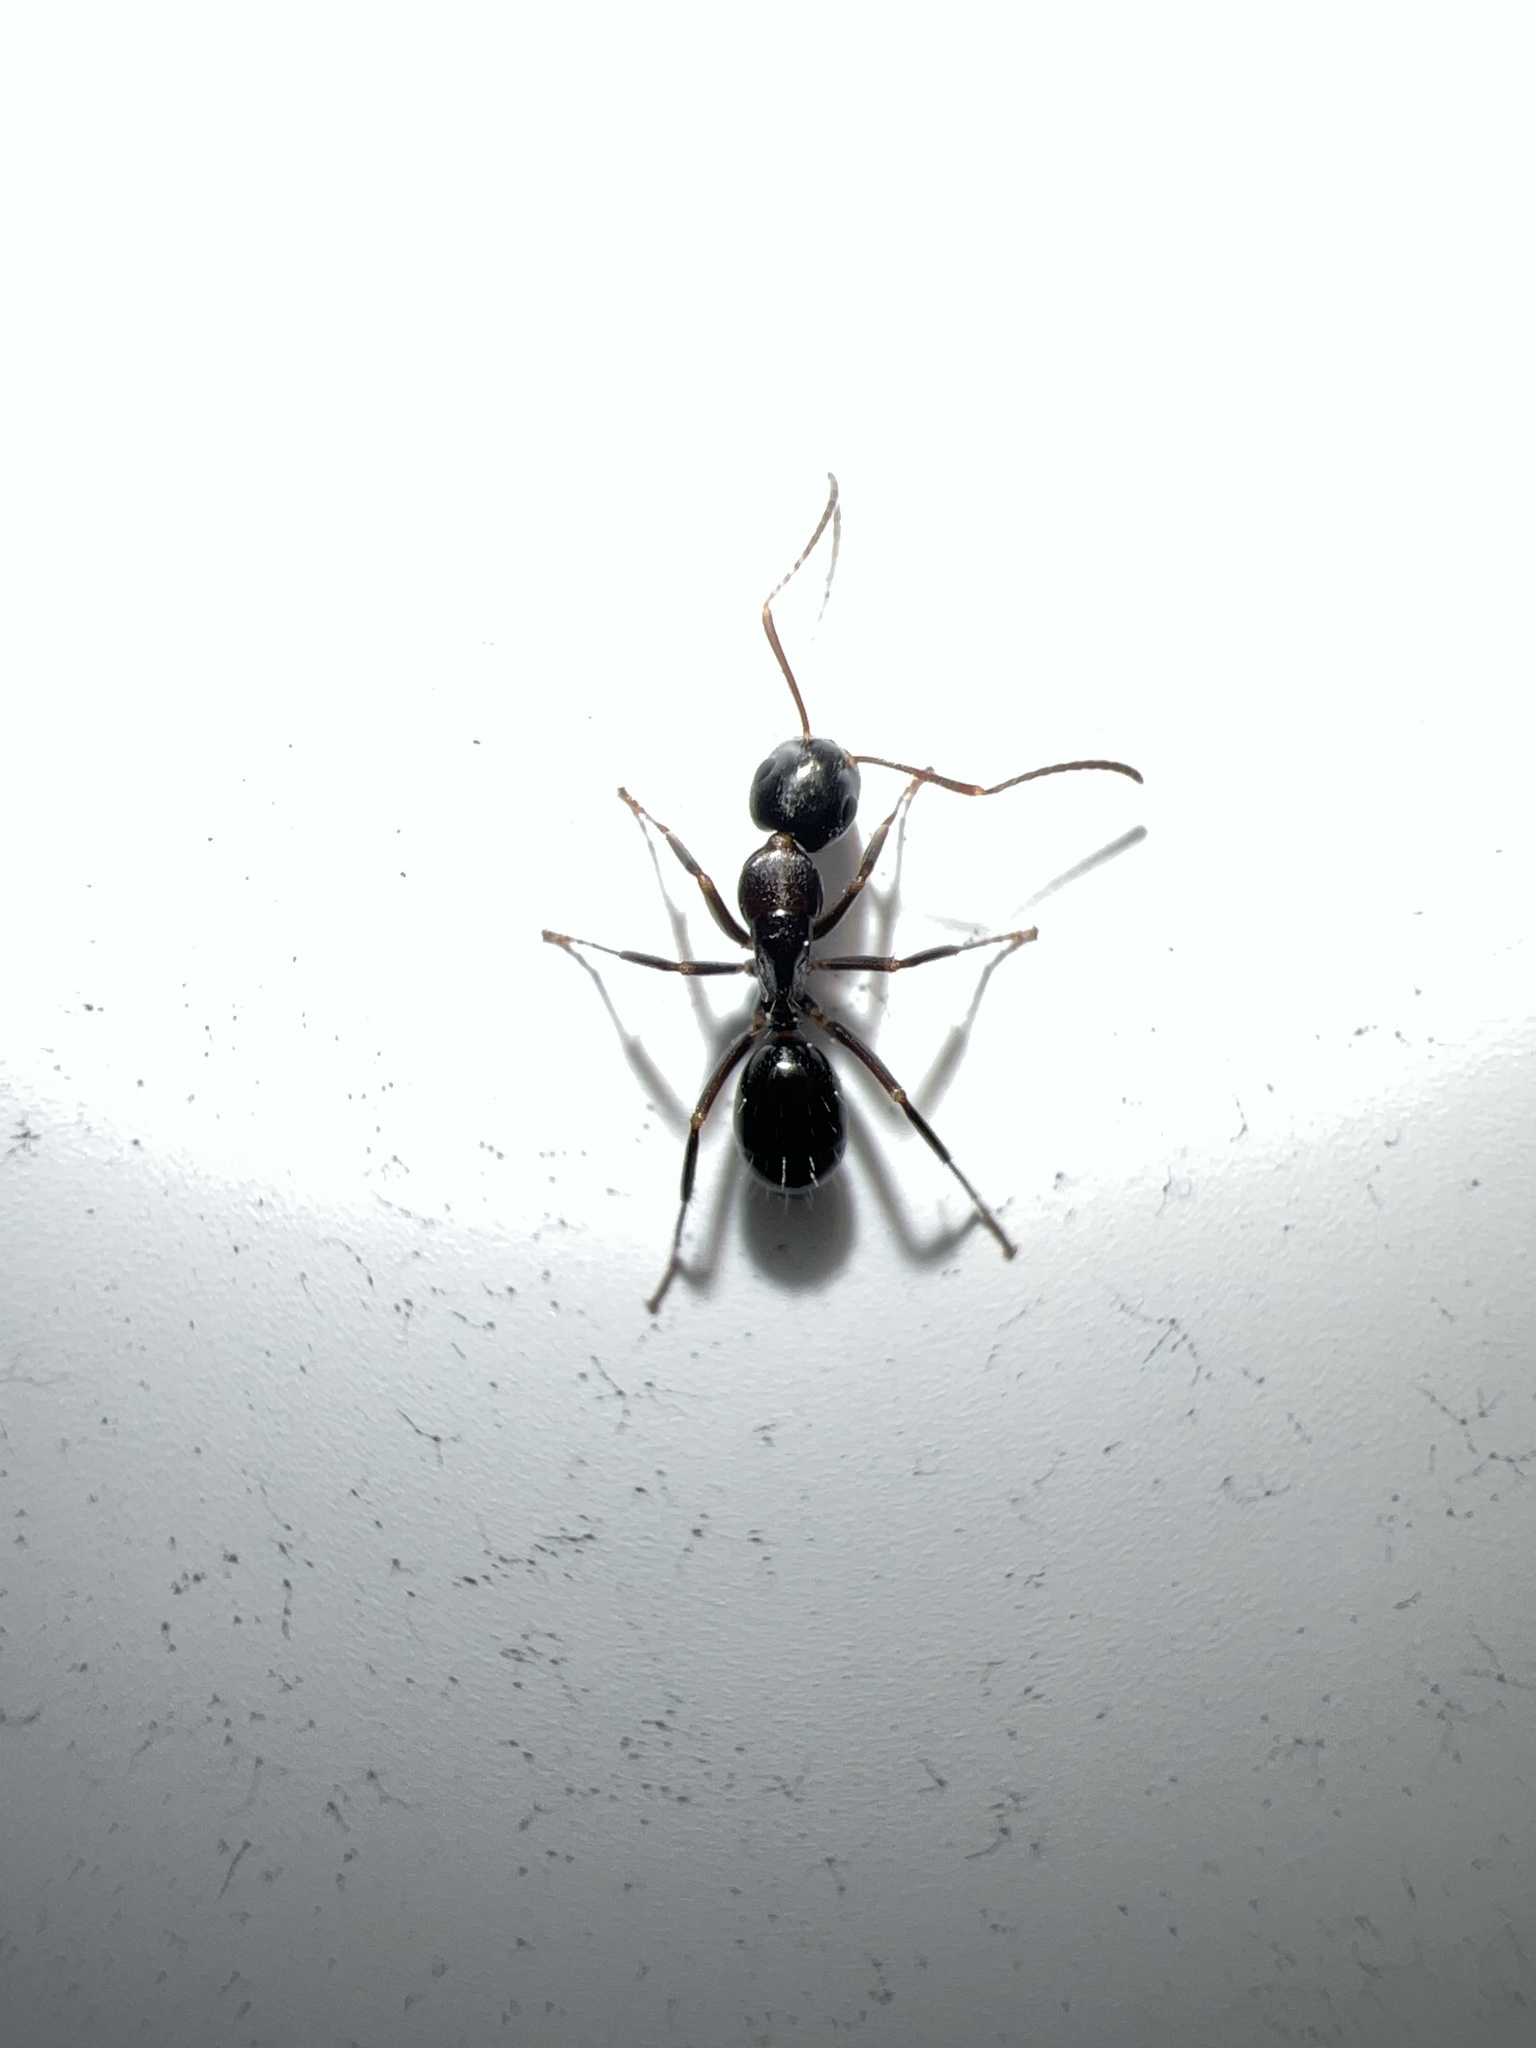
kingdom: Animalia
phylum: Arthropoda
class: Insecta
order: Hymenoptera
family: Formicidae
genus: Camponotus
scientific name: Camponotus nearcticus
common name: Smaller carpenter ant
